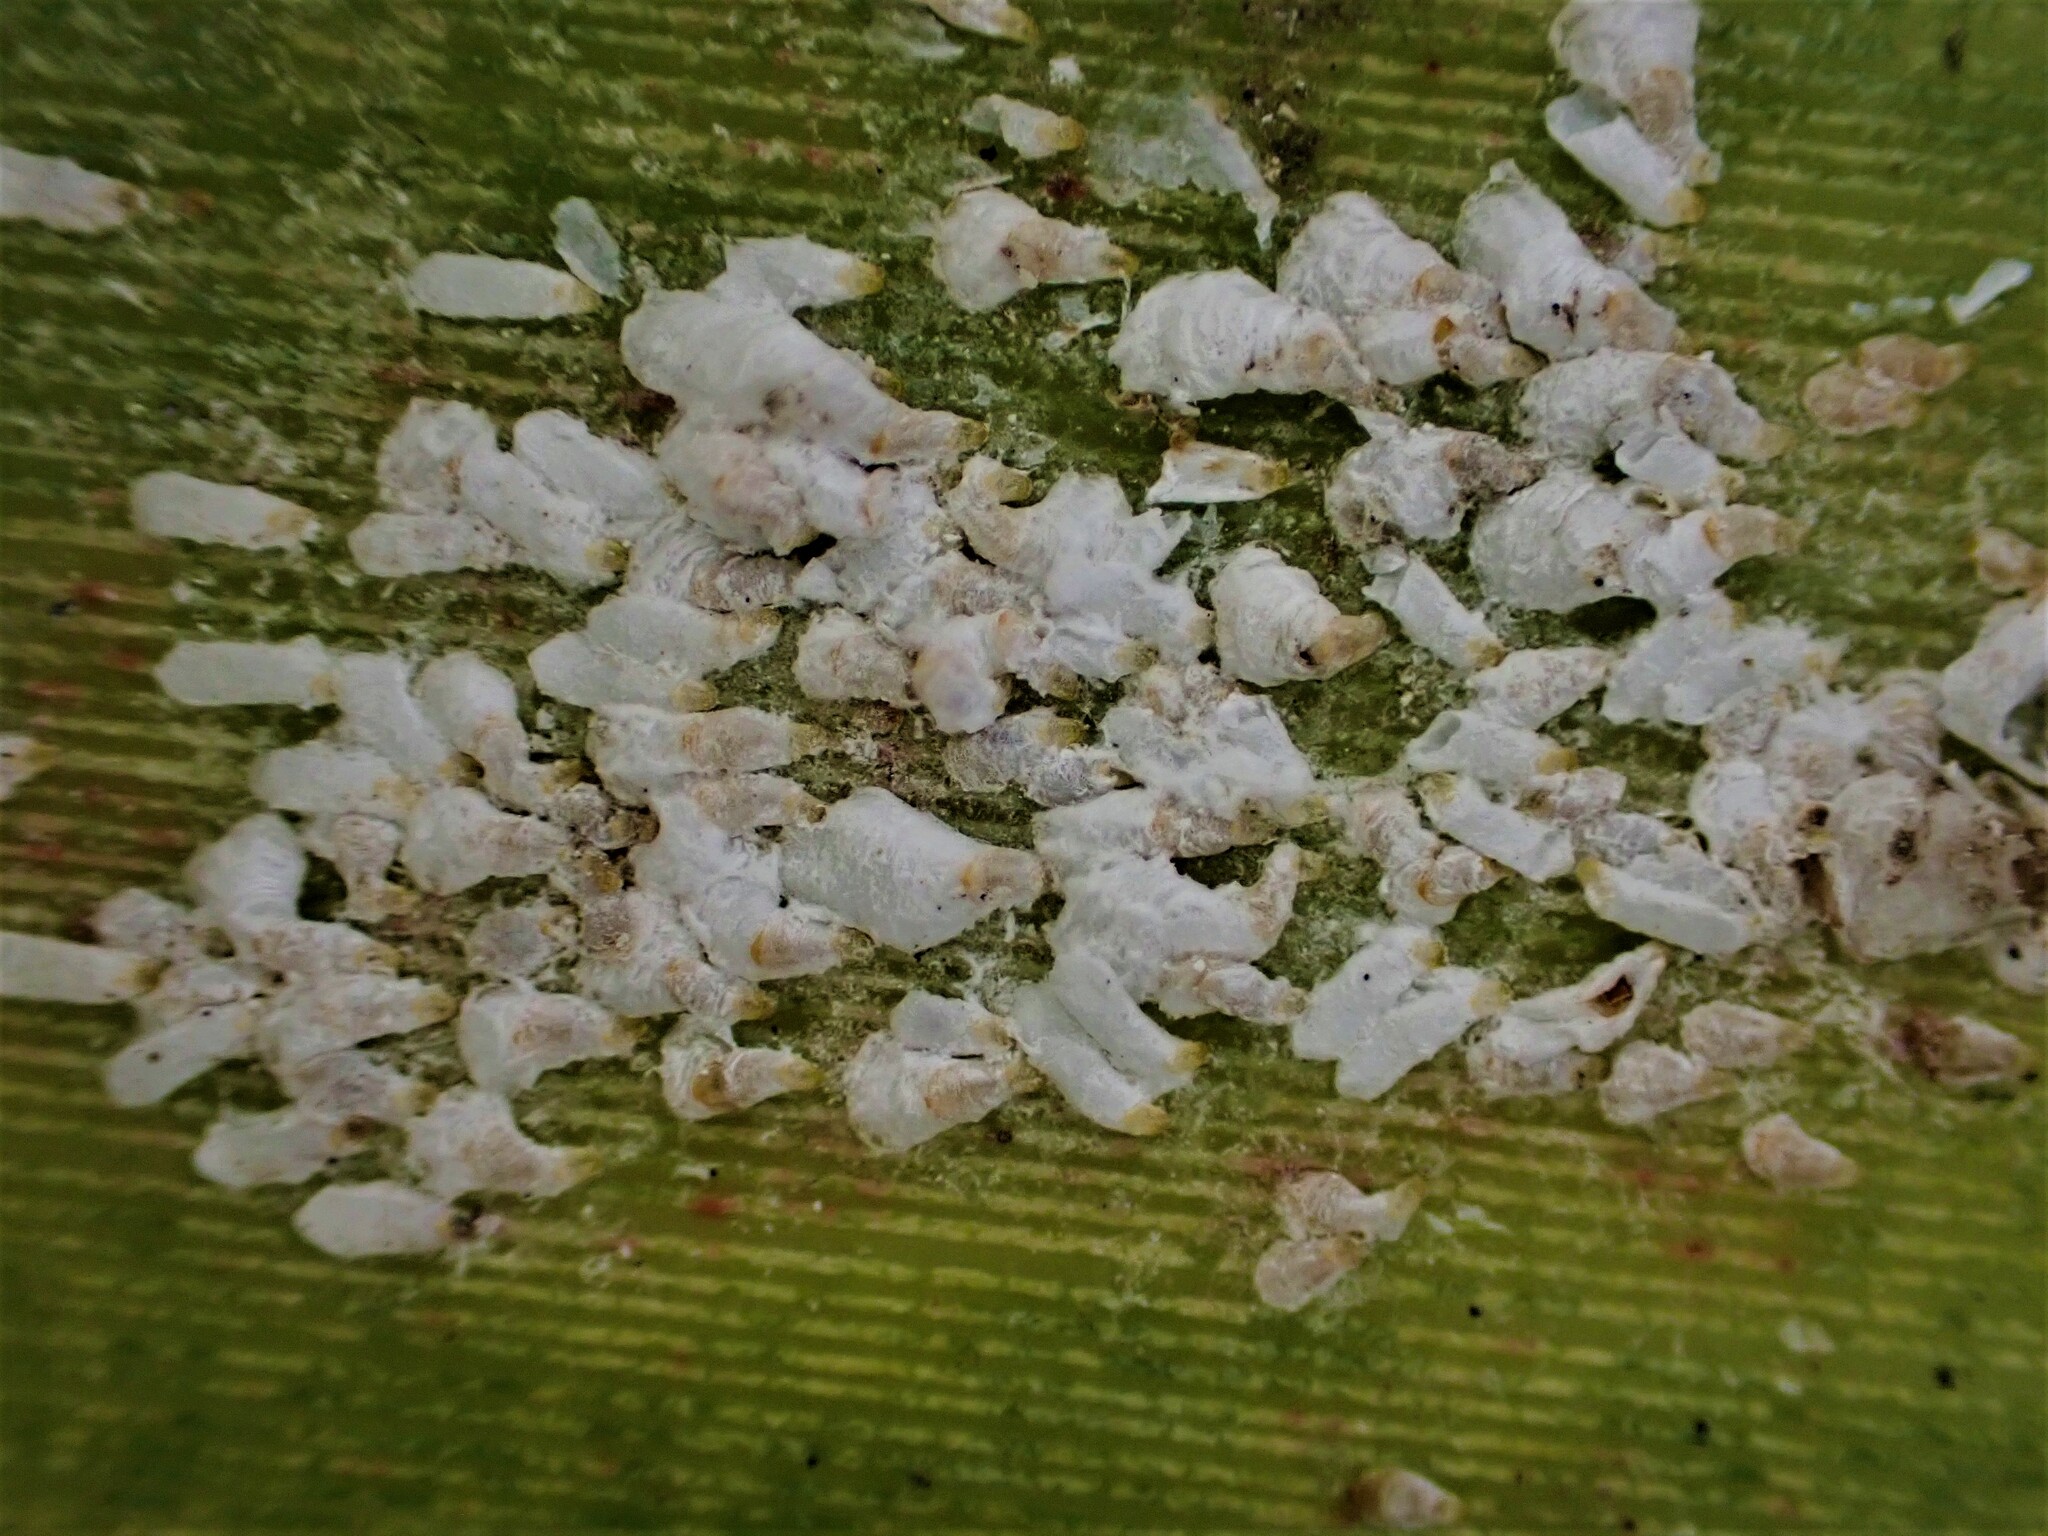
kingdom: Animalia
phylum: Arthropoda
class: Insecta
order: Hemiptera
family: Diaspididae
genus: Poliaspis
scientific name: Poliaspis floccosa
